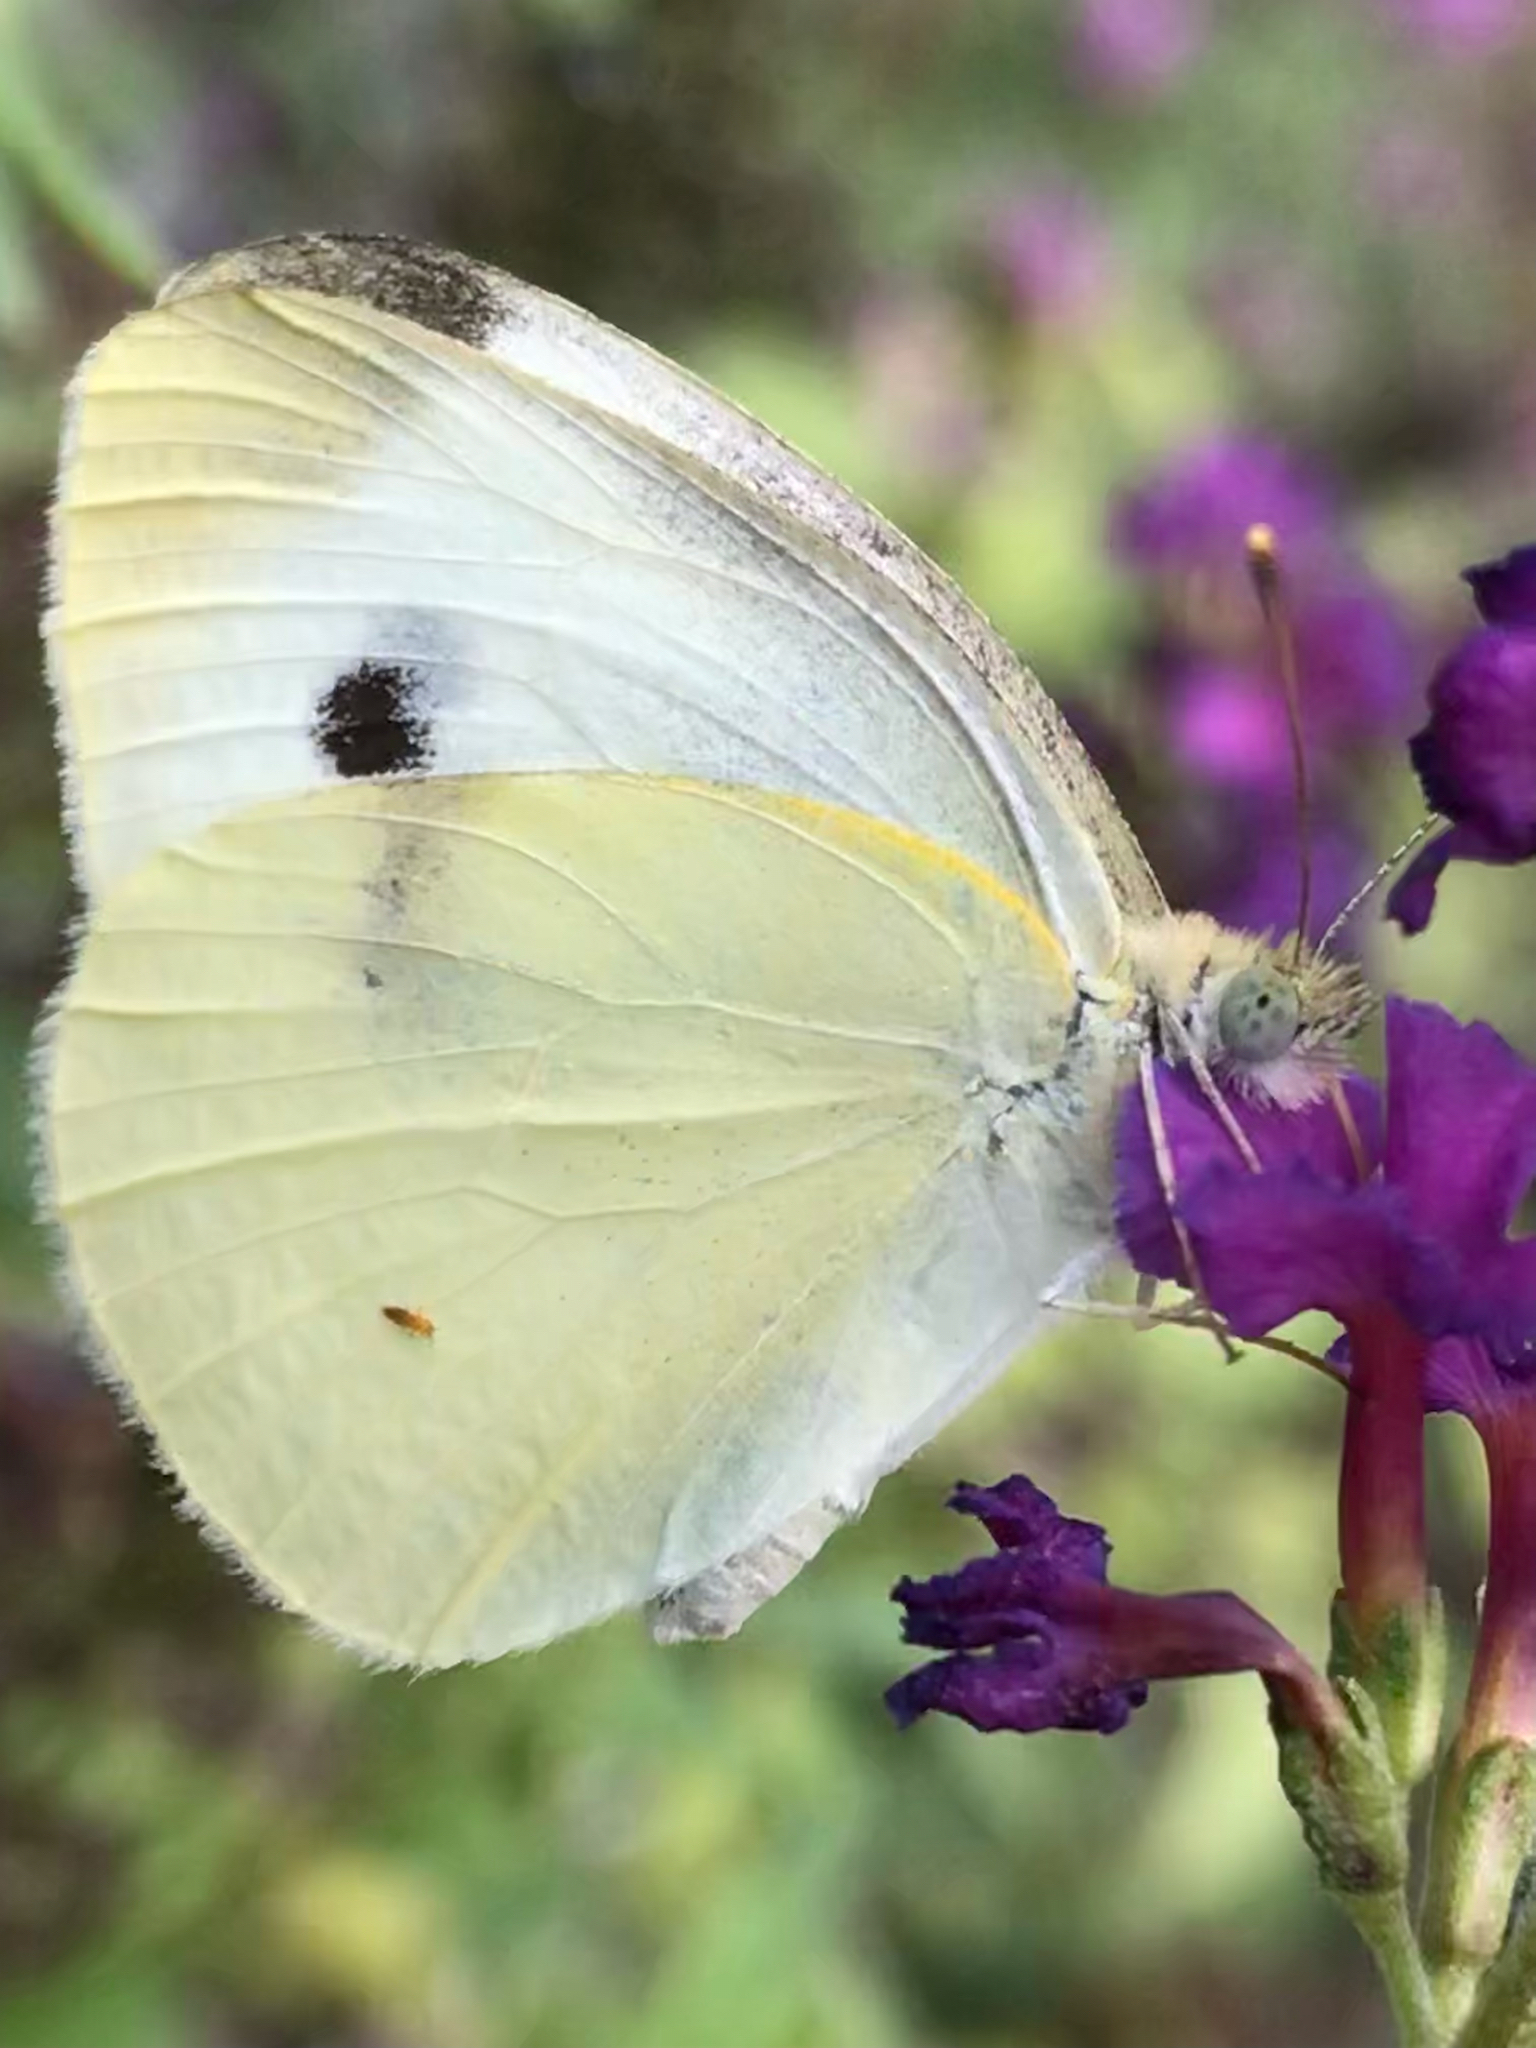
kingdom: Animalia
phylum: Arthropoda
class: Insecta
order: Lepidoptera
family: Pieridae
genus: Pieris
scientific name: Pieris rapae
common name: Small white
